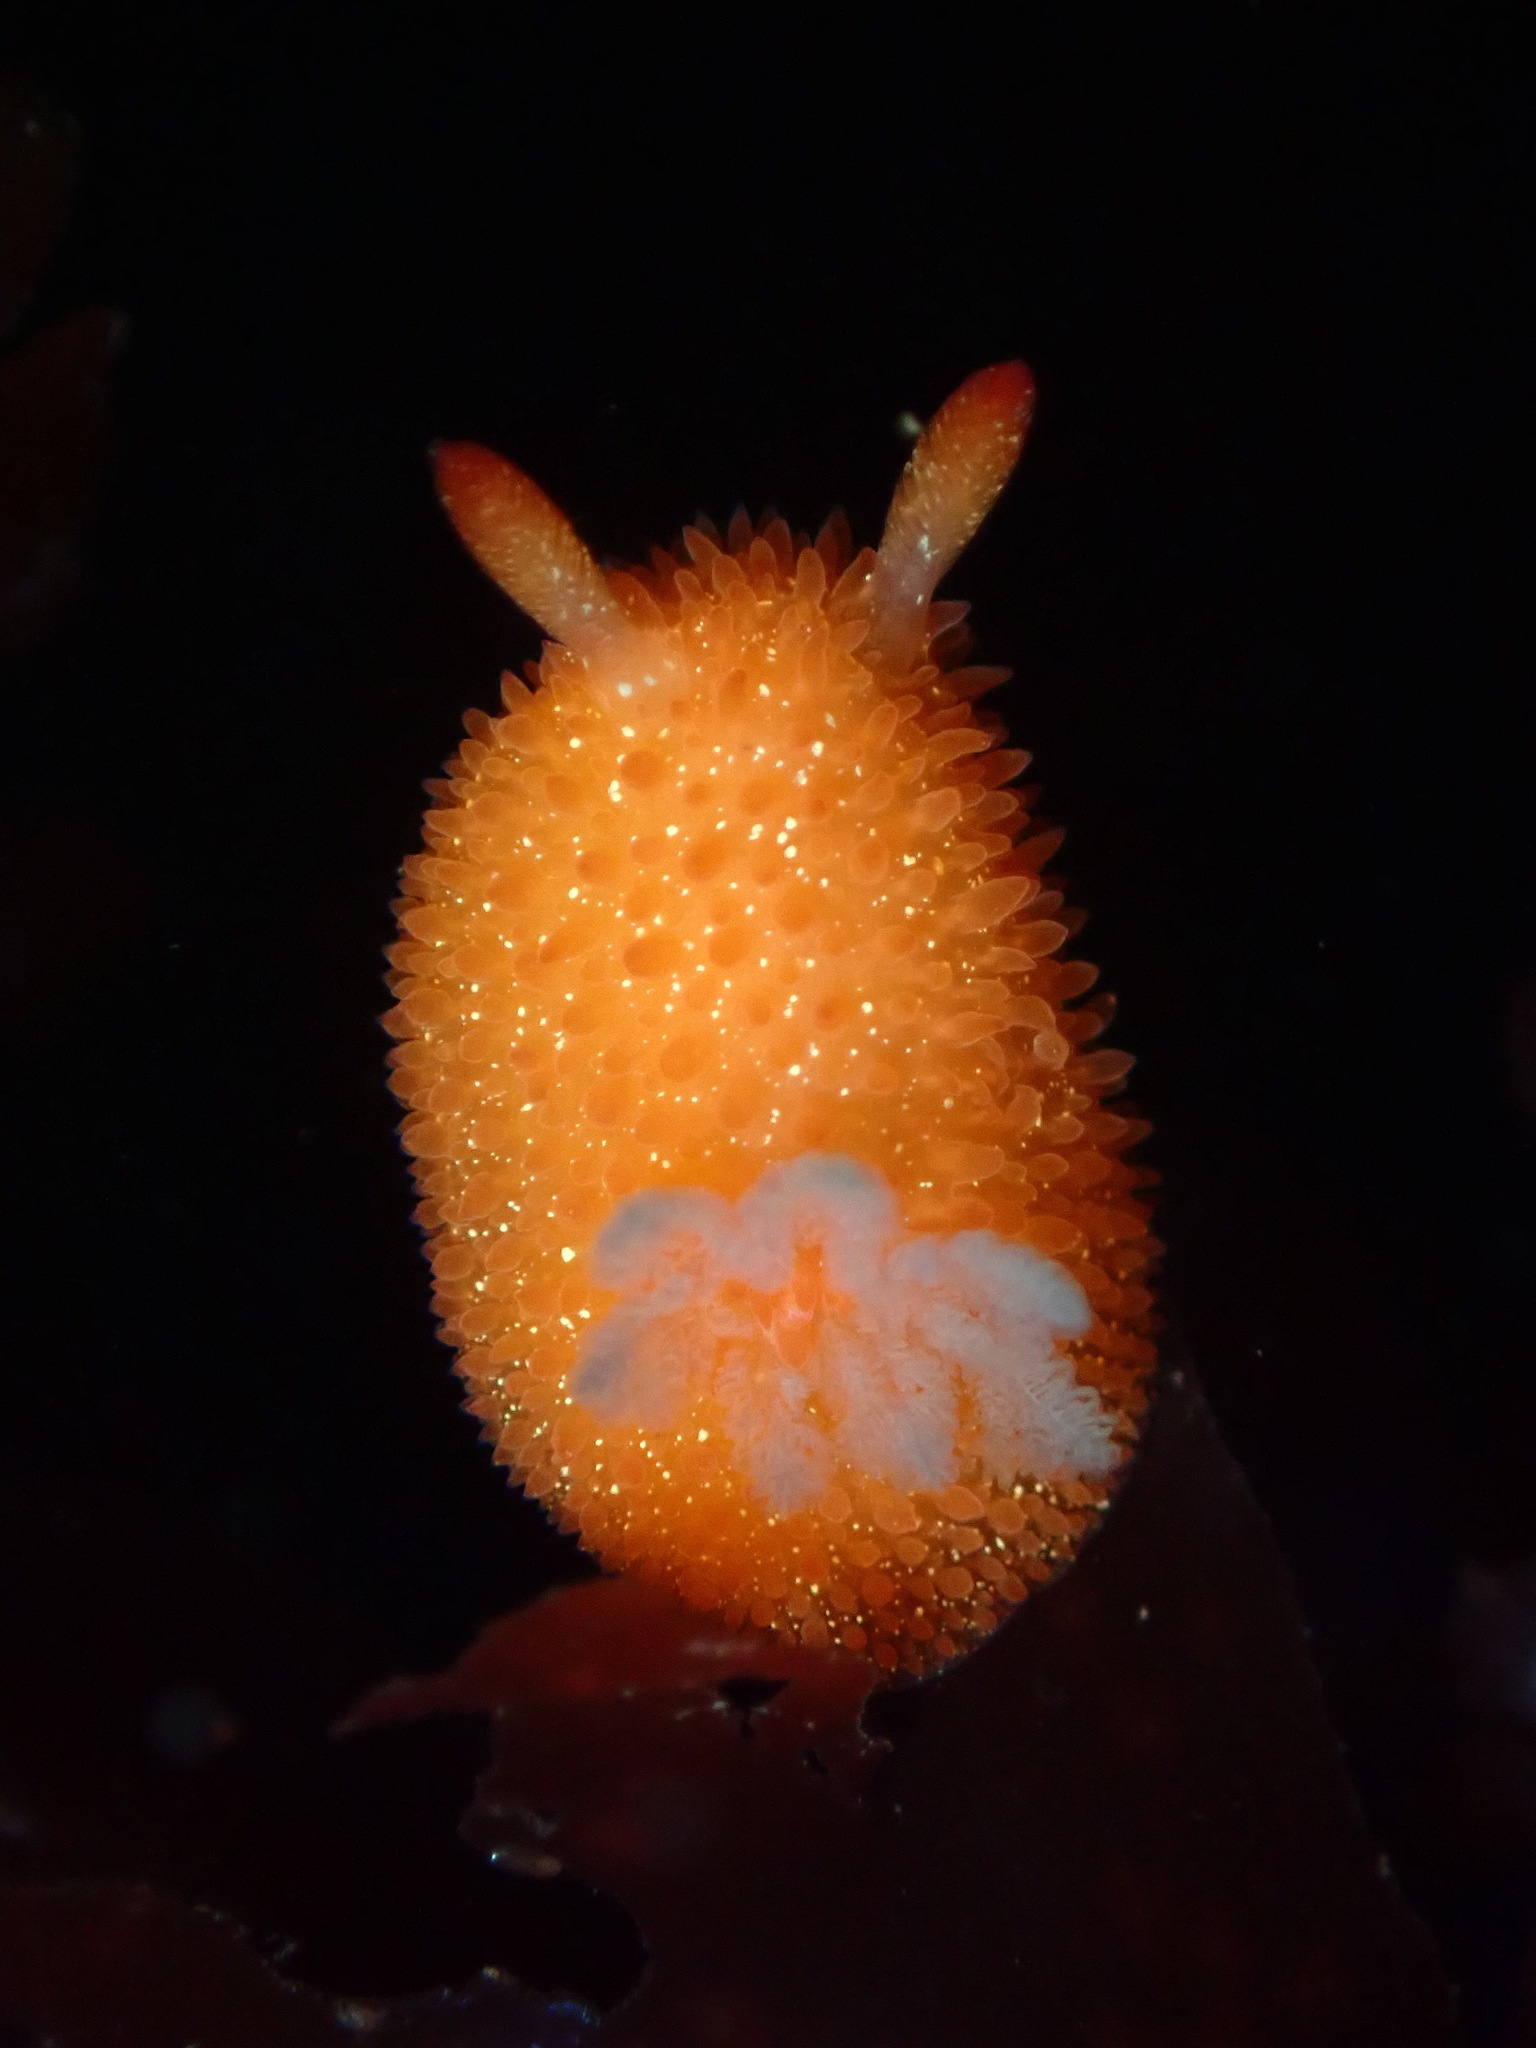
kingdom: Animalia
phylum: Mollusca
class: Gastropoda
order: Nudibranchia
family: Onchidorididae
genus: Acanthodoris
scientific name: Acanthodoris lutea
